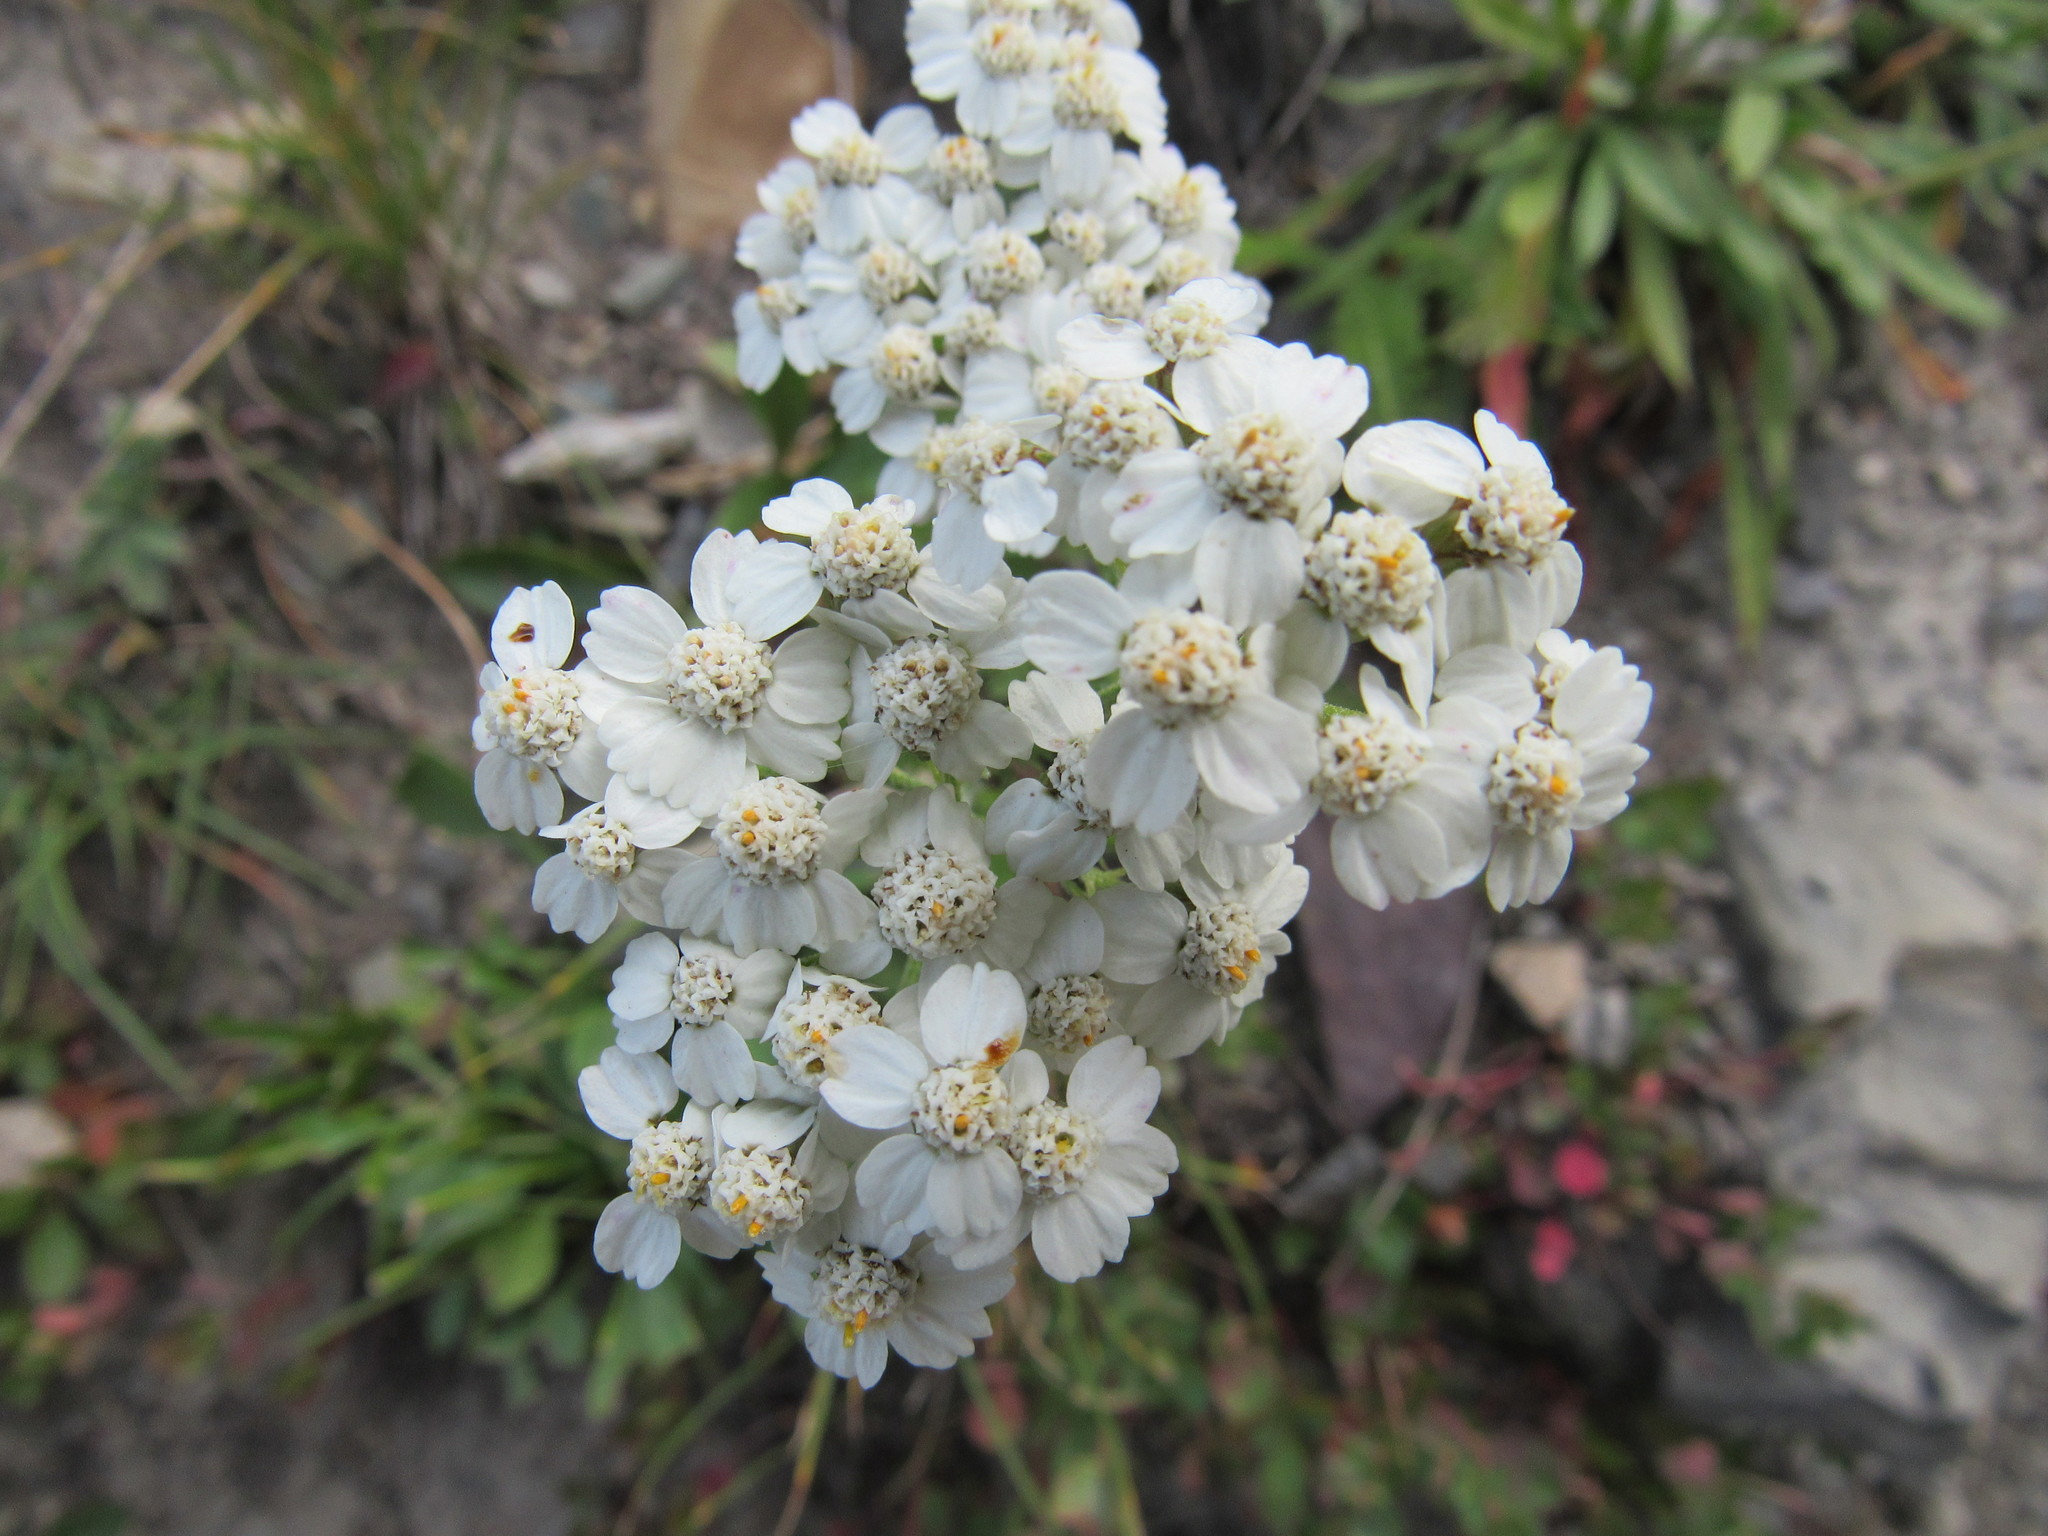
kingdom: Plantae
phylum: Tracheophyta
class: Magnoliopsida
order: Asterales
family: Asteraceae
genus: Achillea
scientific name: Achillea millefolium
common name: Yarrow
